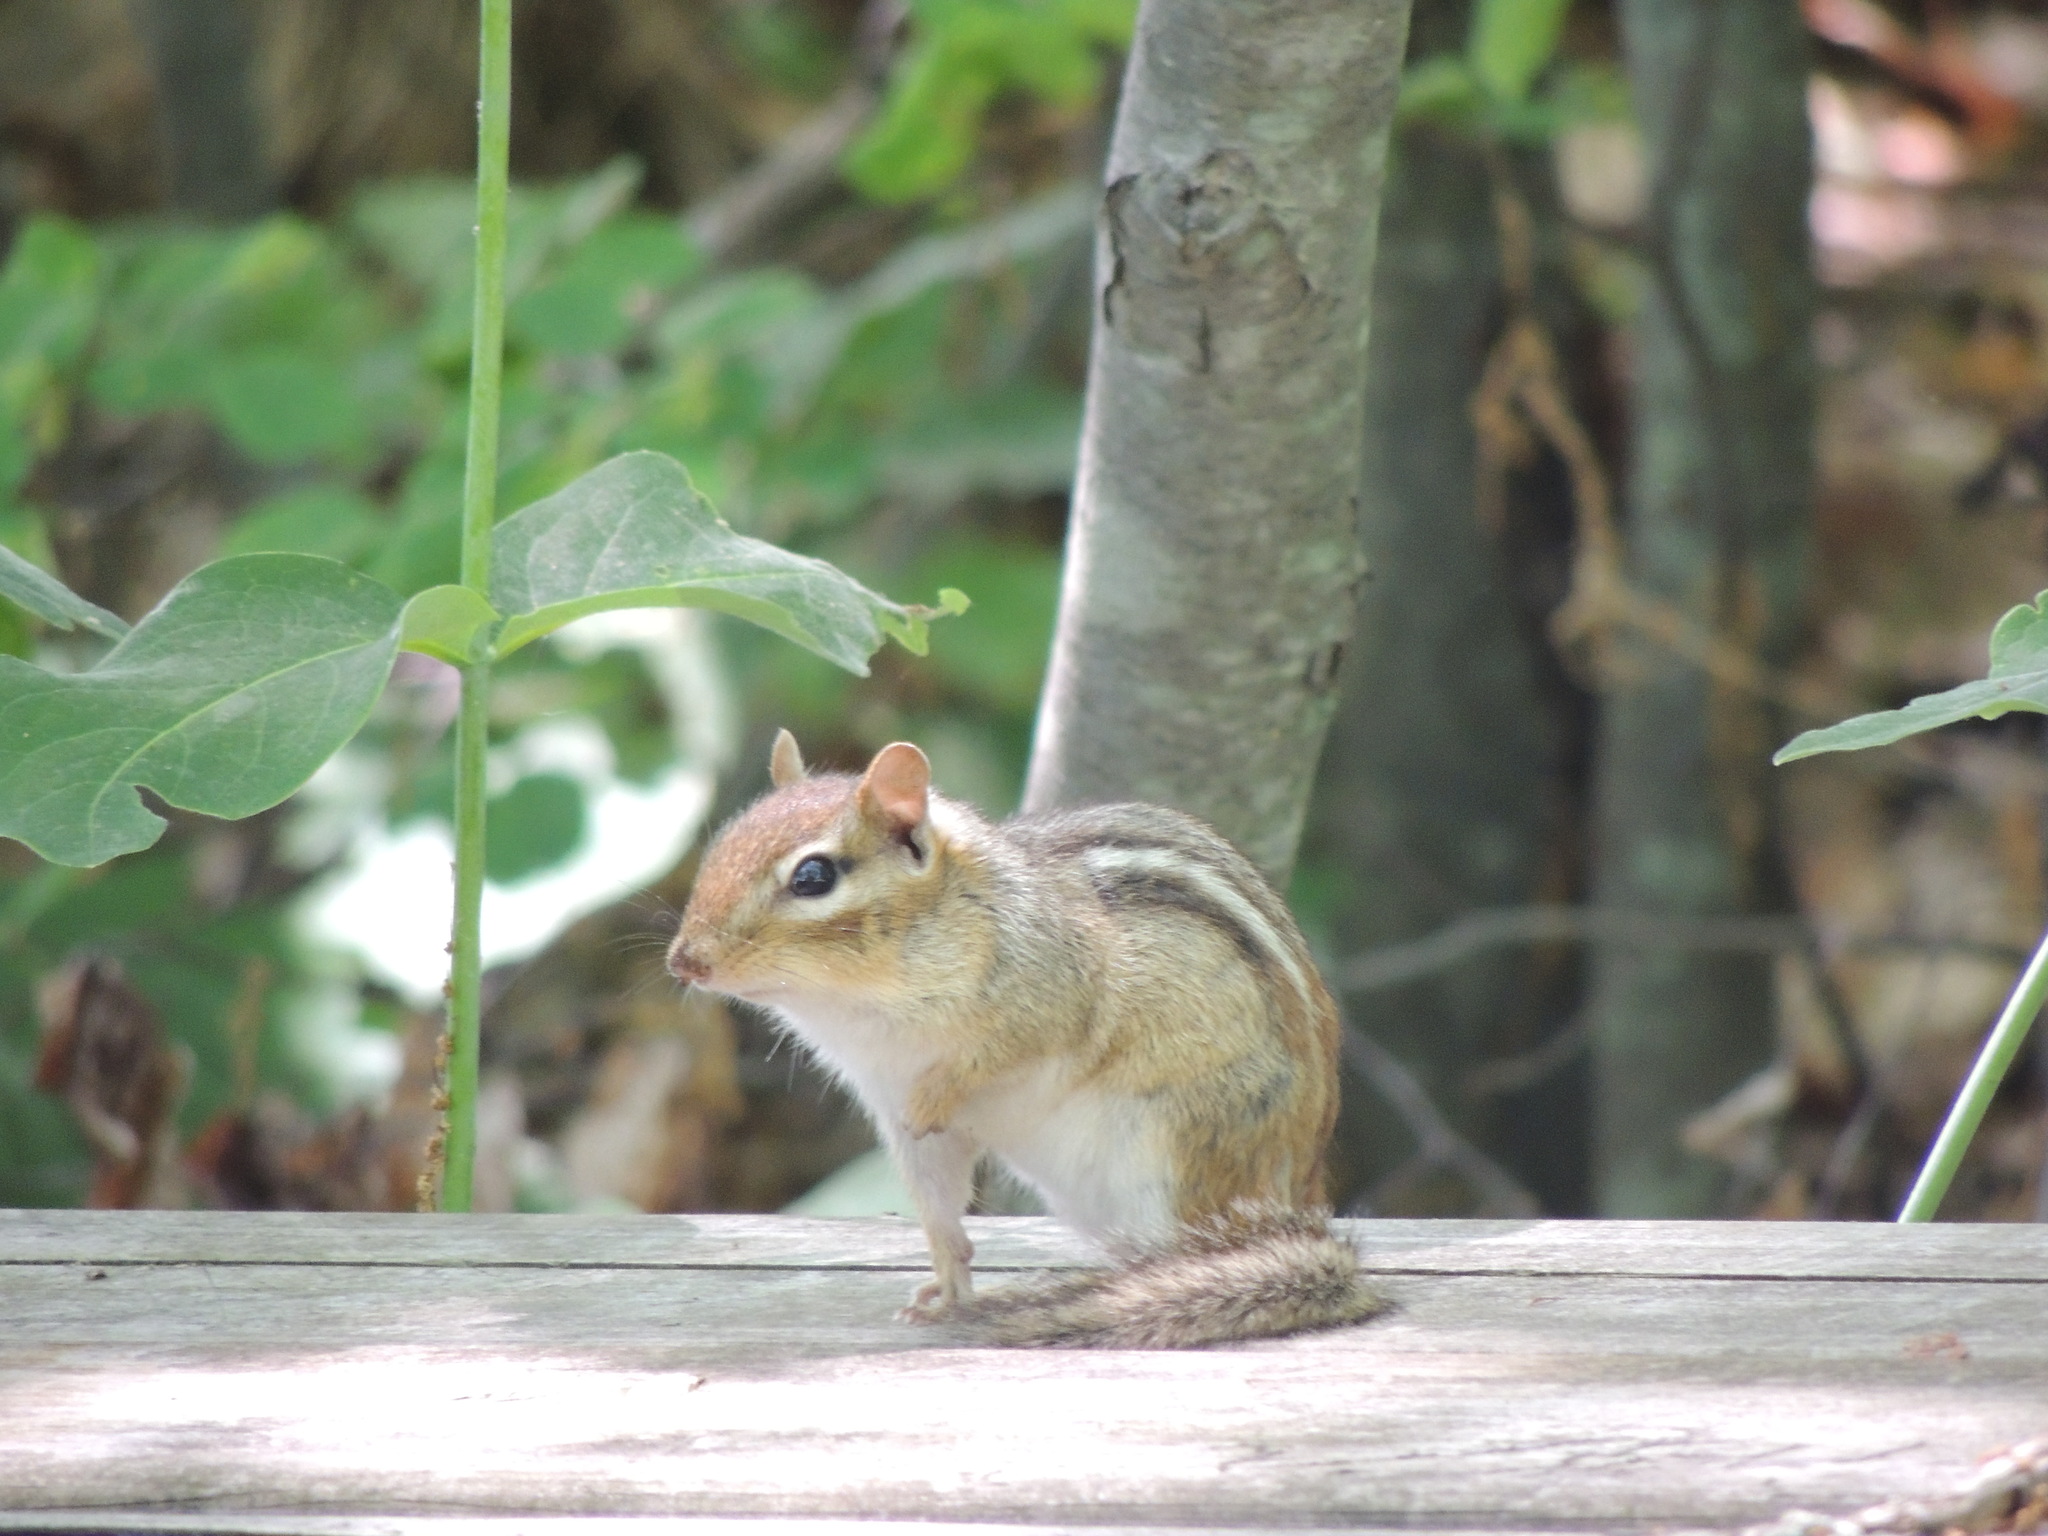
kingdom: Animalia
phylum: Chordata
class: Mammalia
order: Rodentia
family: Sciuridae
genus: Tamias
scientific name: Tamias striatus
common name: Eastern chipmunk
